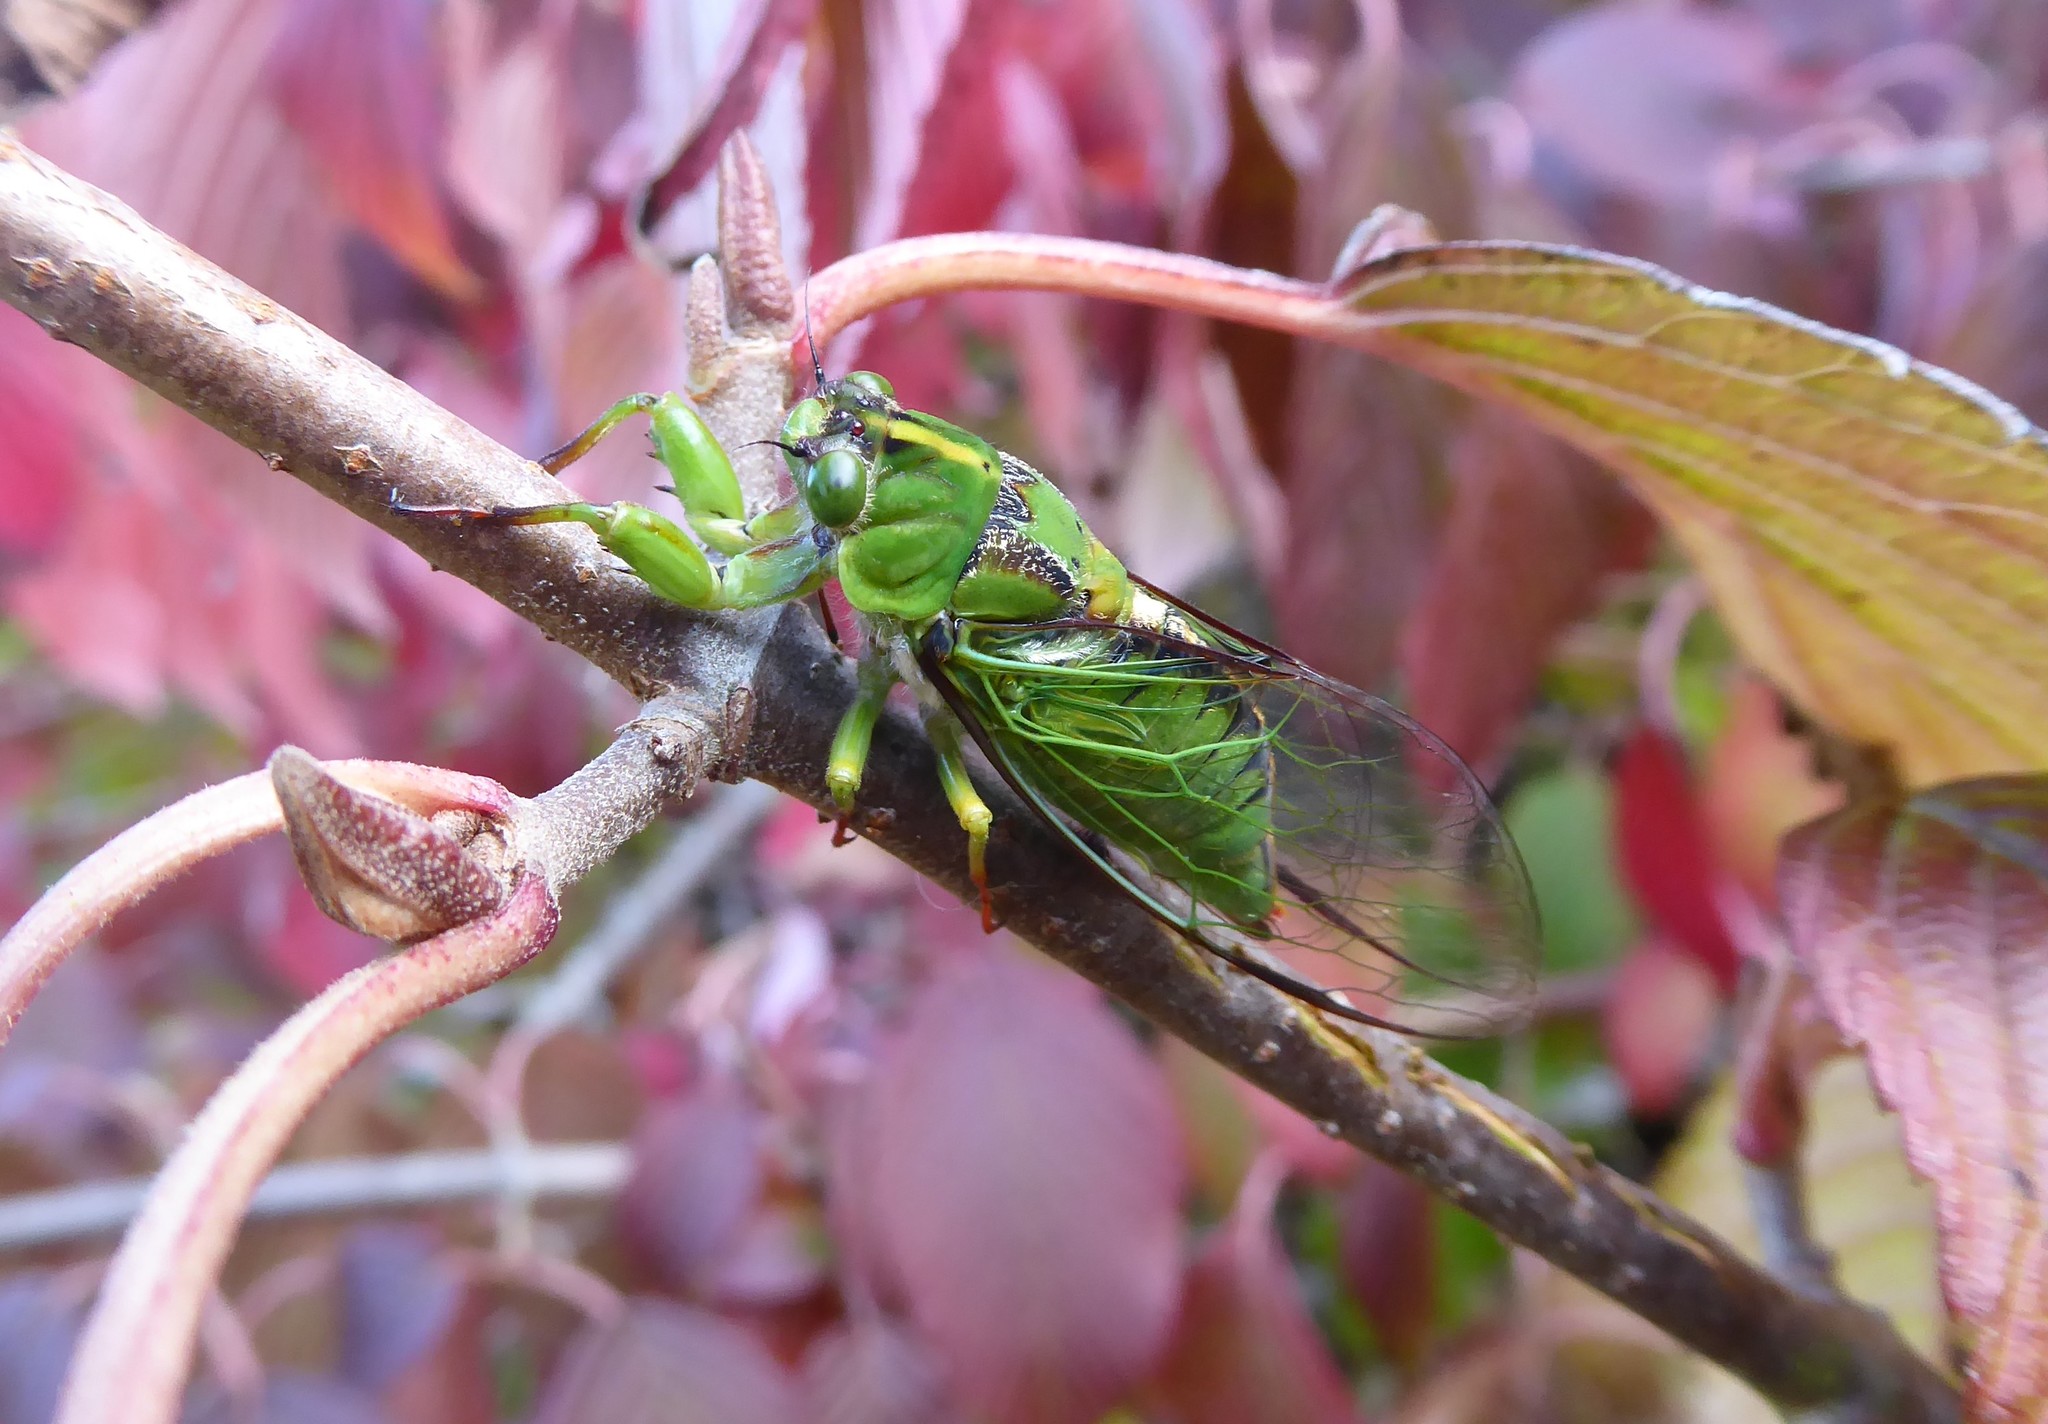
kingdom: Animalia
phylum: Arthropoda
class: Insecta
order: Hemiptera
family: Cicadidae
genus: Kikihia
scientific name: Kikihia subalpina
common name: Chathams cicada
